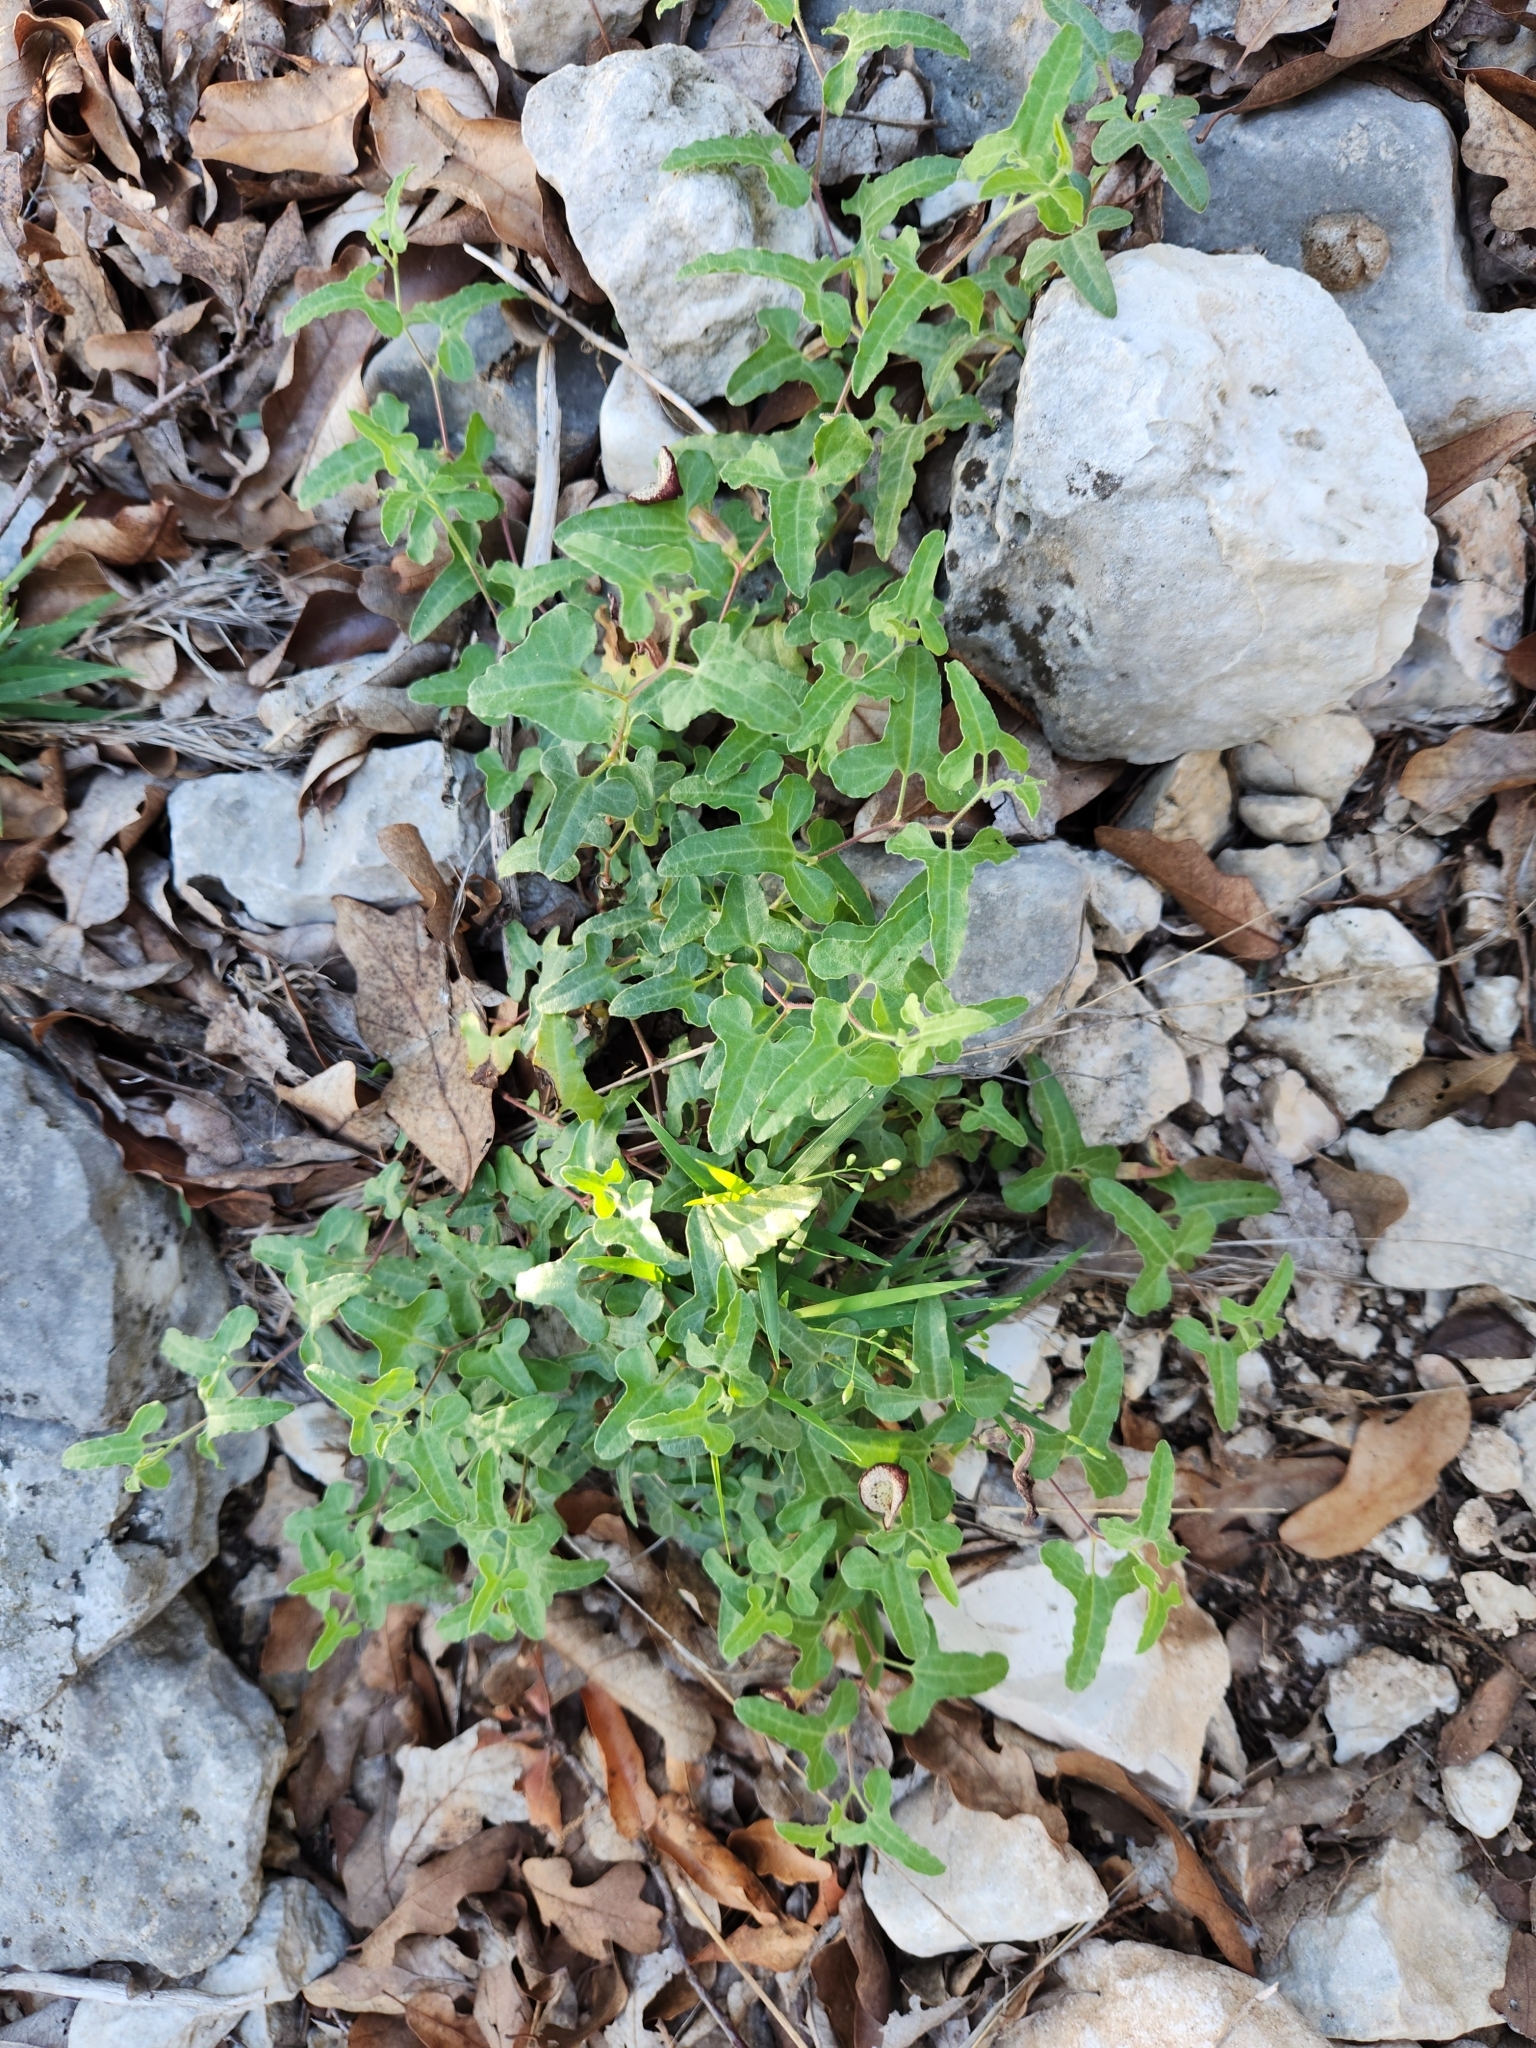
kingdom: Plantae
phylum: Tracheophyta
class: Magnoliopsida
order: Piperales
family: Aristolochiaceae
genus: Aristolochia
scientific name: Aristolochia coryi
